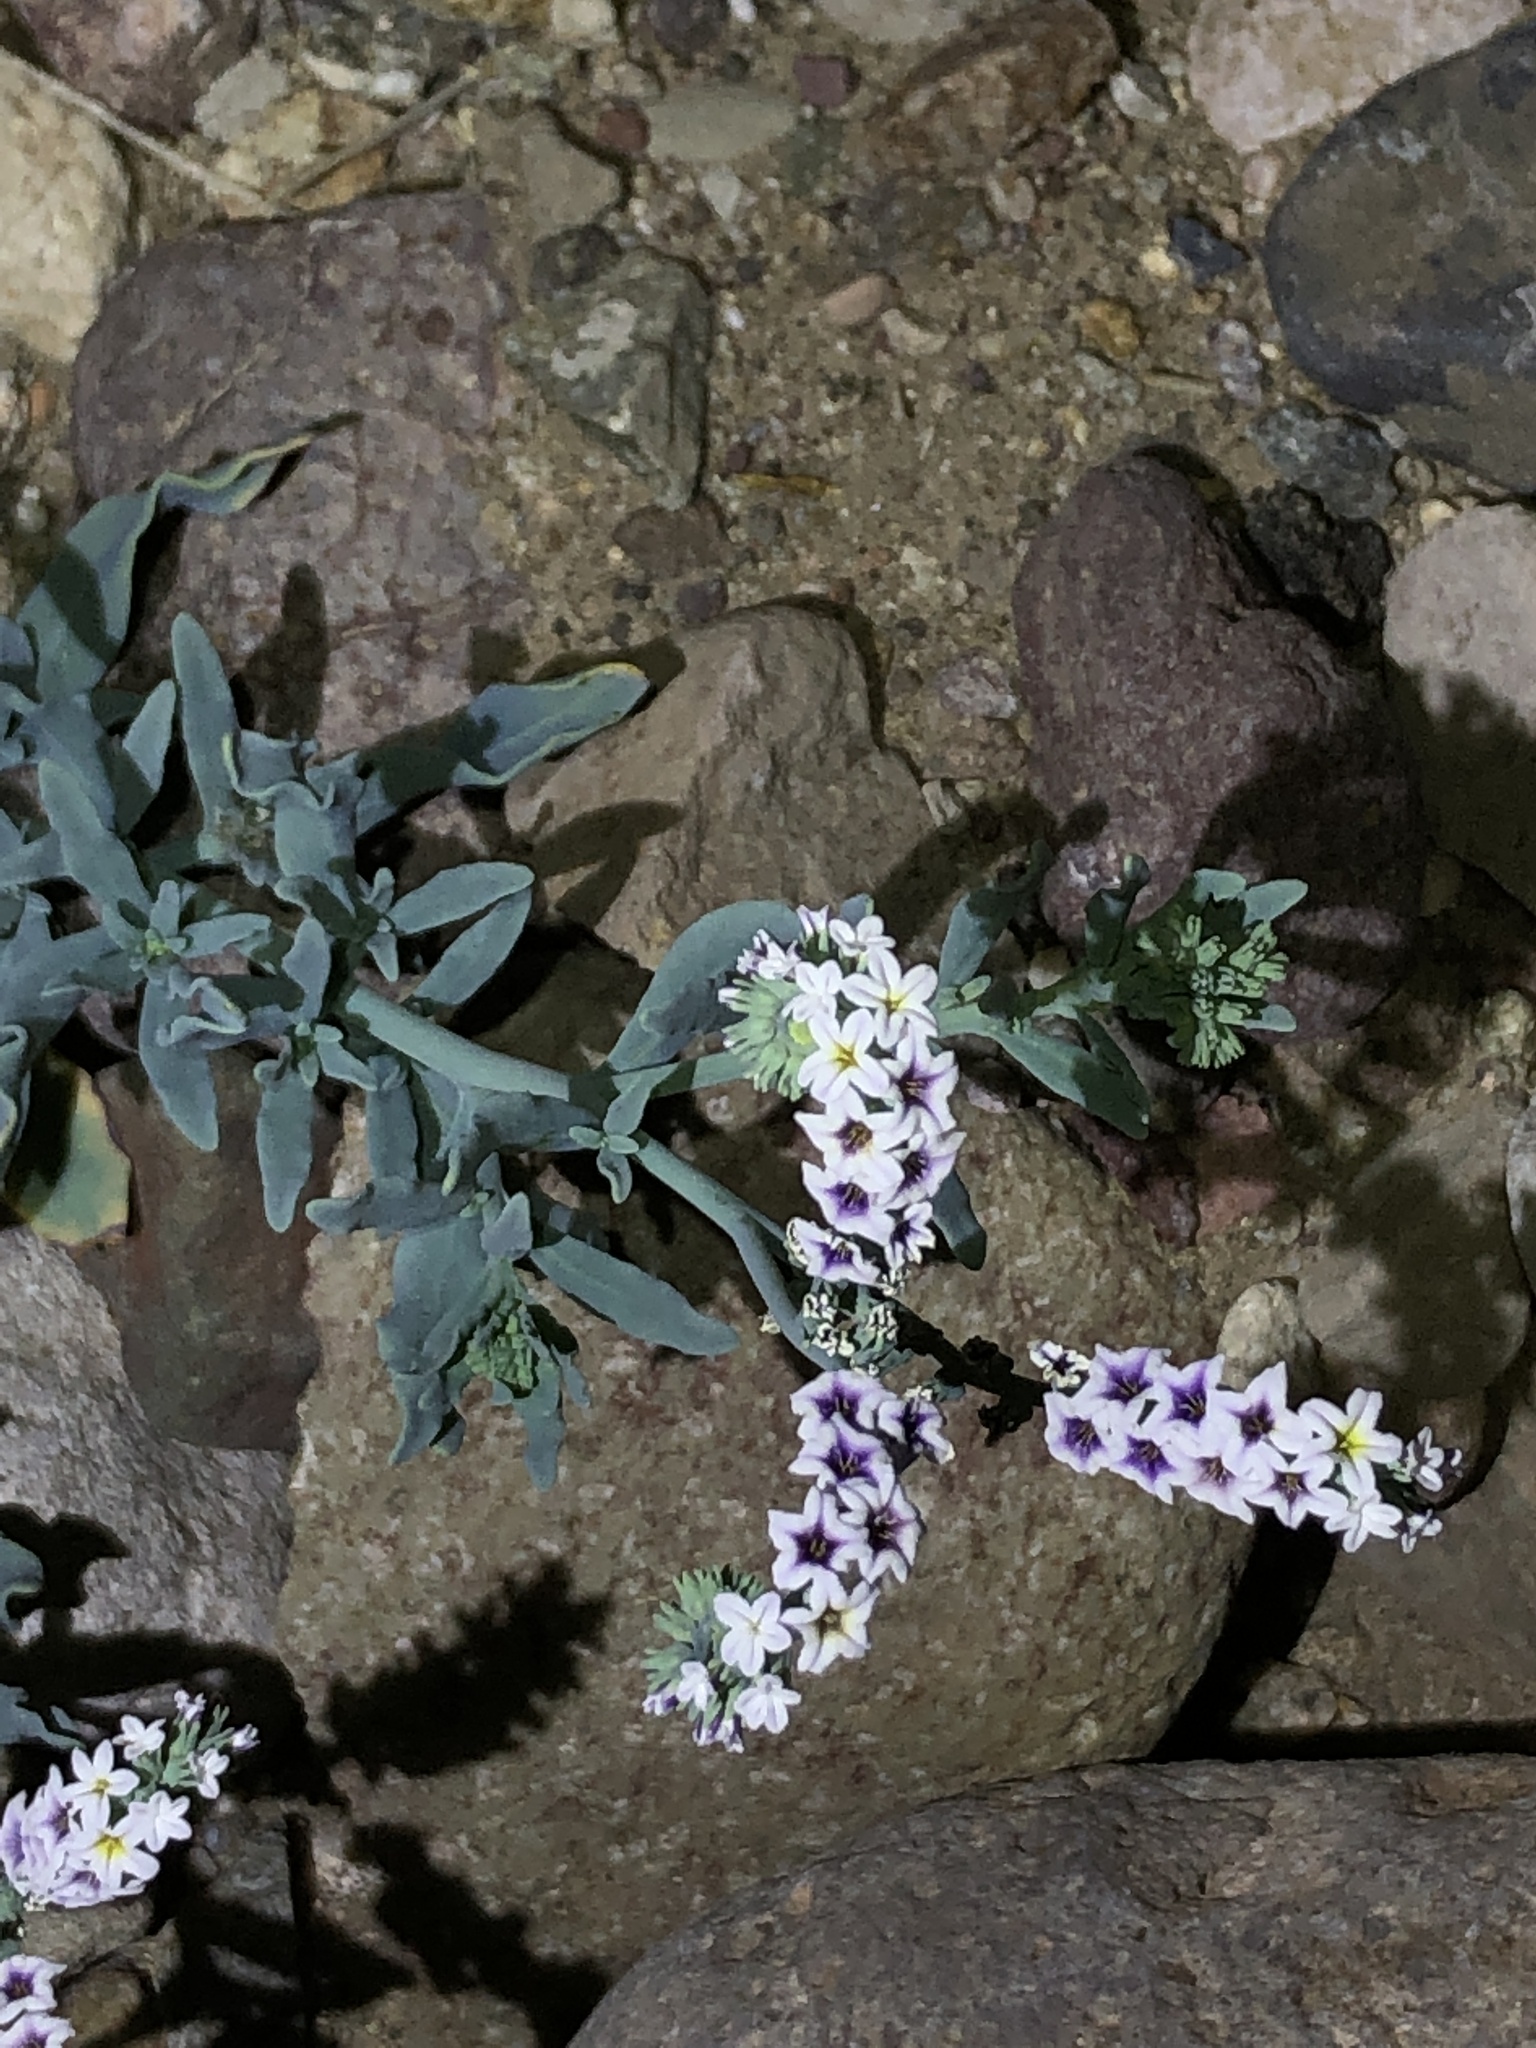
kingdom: Plantae
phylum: Tracheophyta
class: Magnoliopsida
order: Boraginales
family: Heliotropiaceae
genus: Heliotropium
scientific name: Heliotropium curassavicum
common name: Seaside heliotrope
